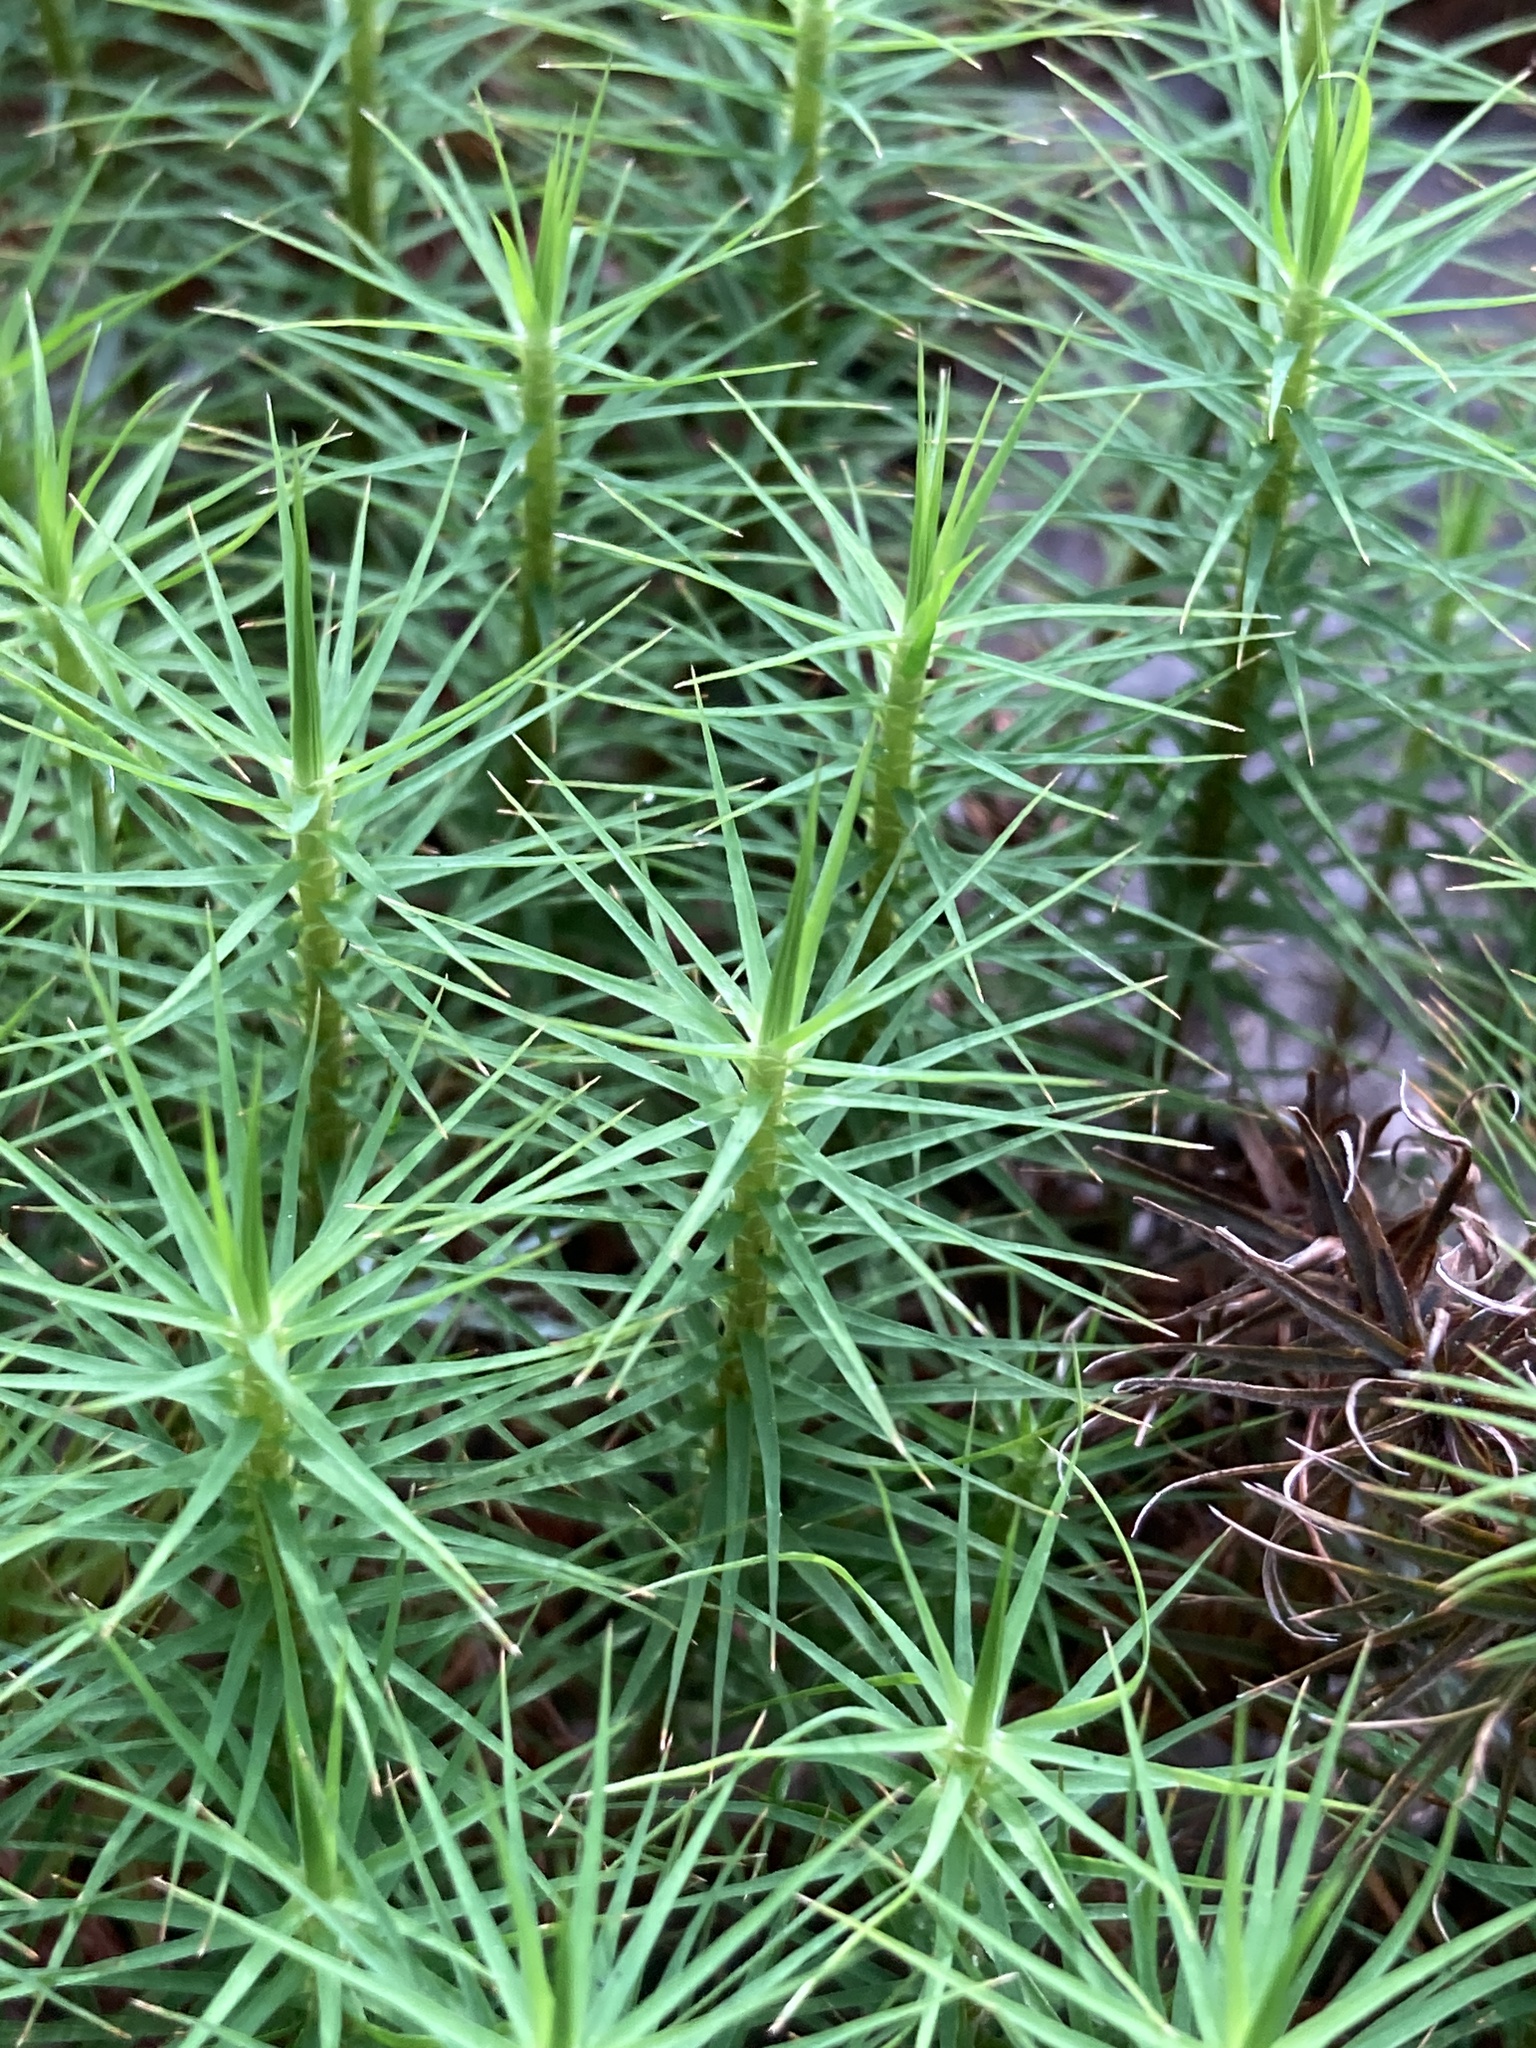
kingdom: Plantae
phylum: Bryophyta
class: Polytrichopsida
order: Polytrichales
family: Polytrichaceae
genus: Polytrichum
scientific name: Polytrichum commune
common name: Common haircap
